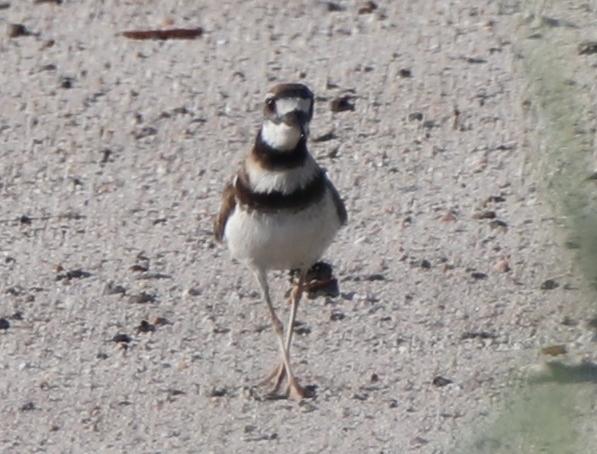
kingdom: Animalia
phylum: Chordata
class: Aves
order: Charadriiformes
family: Charadriidae
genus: Charadrius
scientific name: Charadrius vociferus
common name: Killdeer
